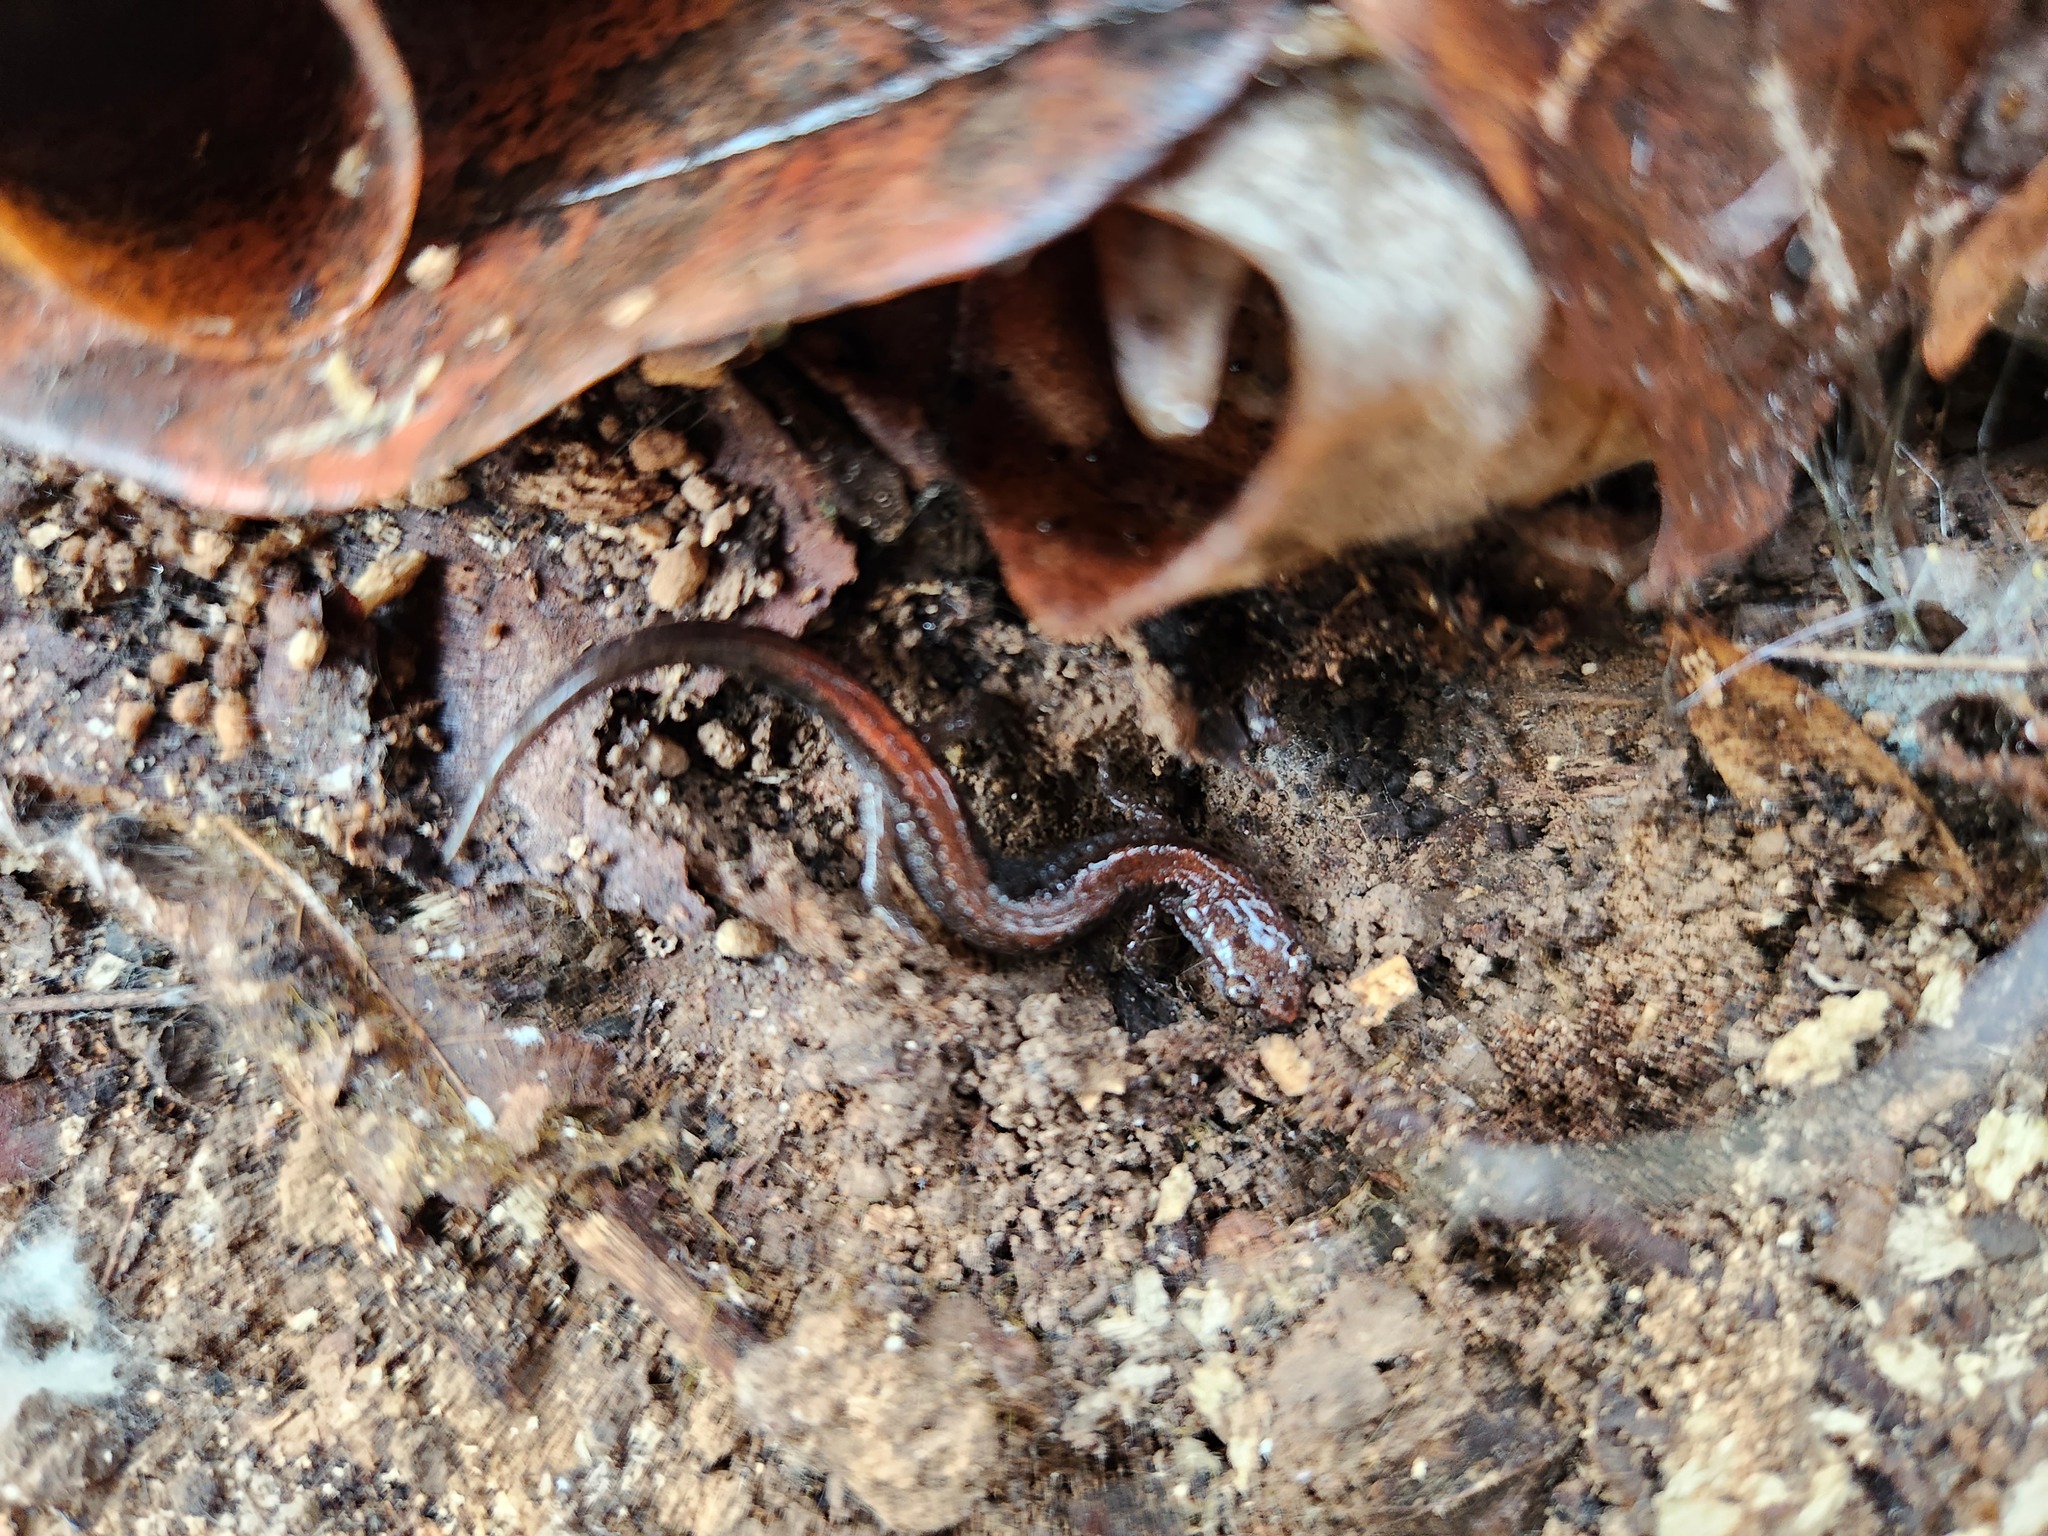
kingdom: Animalia
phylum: Chordata
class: Amphibia
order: Caudata
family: Plethodontidae
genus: Plethodon
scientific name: Plethodon dorsalis
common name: Northern zigzag salamander
